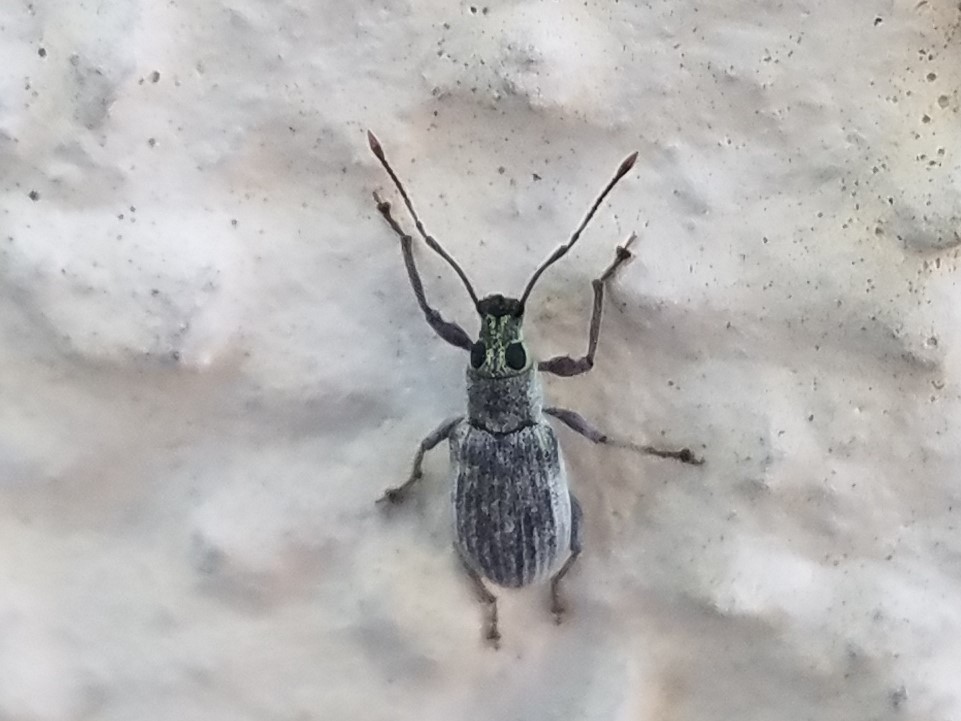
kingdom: Animalia
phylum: Arthropoda
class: Insecta
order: Coleoptera
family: Curculionidae
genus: Cyrtepistomus
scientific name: Cyrtepistomus castaneus
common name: Weevil
